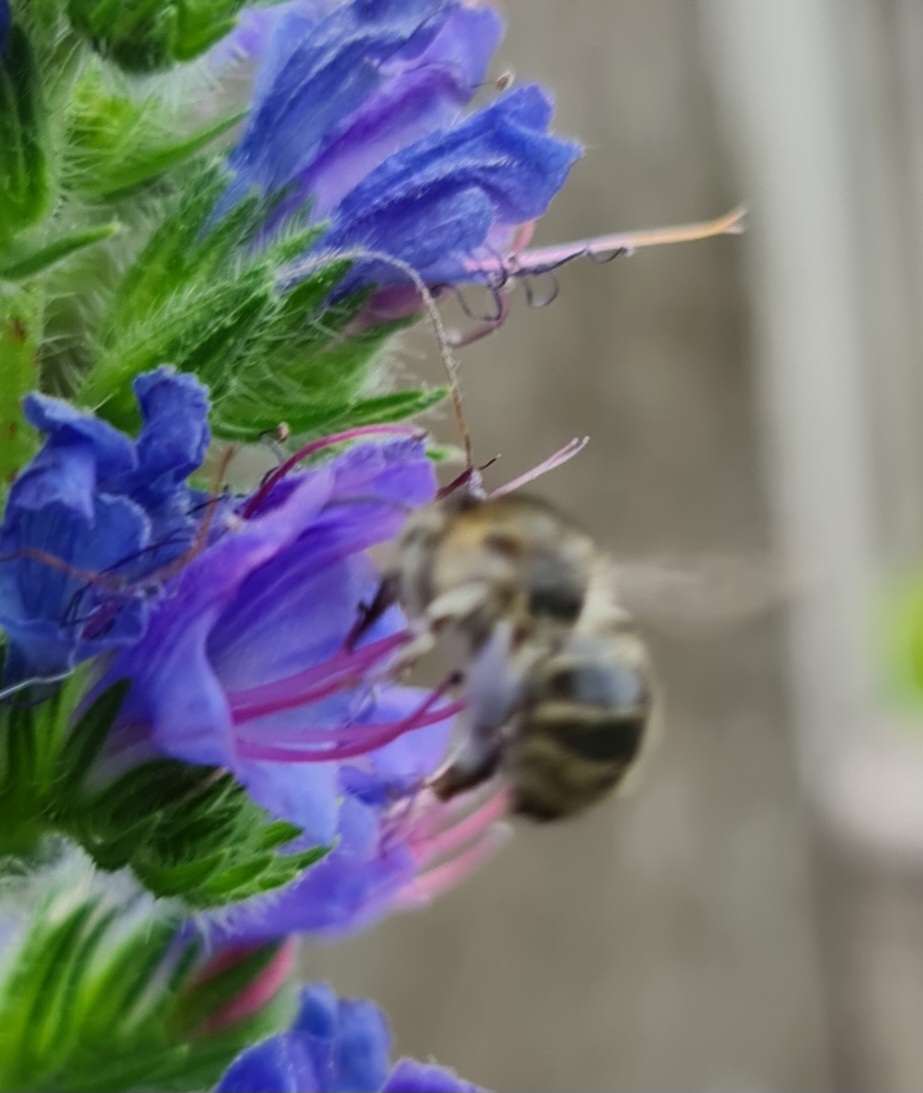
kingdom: Animalia
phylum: Arthropoda
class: Insecta
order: Hymenoptera
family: Apidae
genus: Anthophora
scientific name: Anthophora quadrimaculata
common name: Four-banded flower bee
